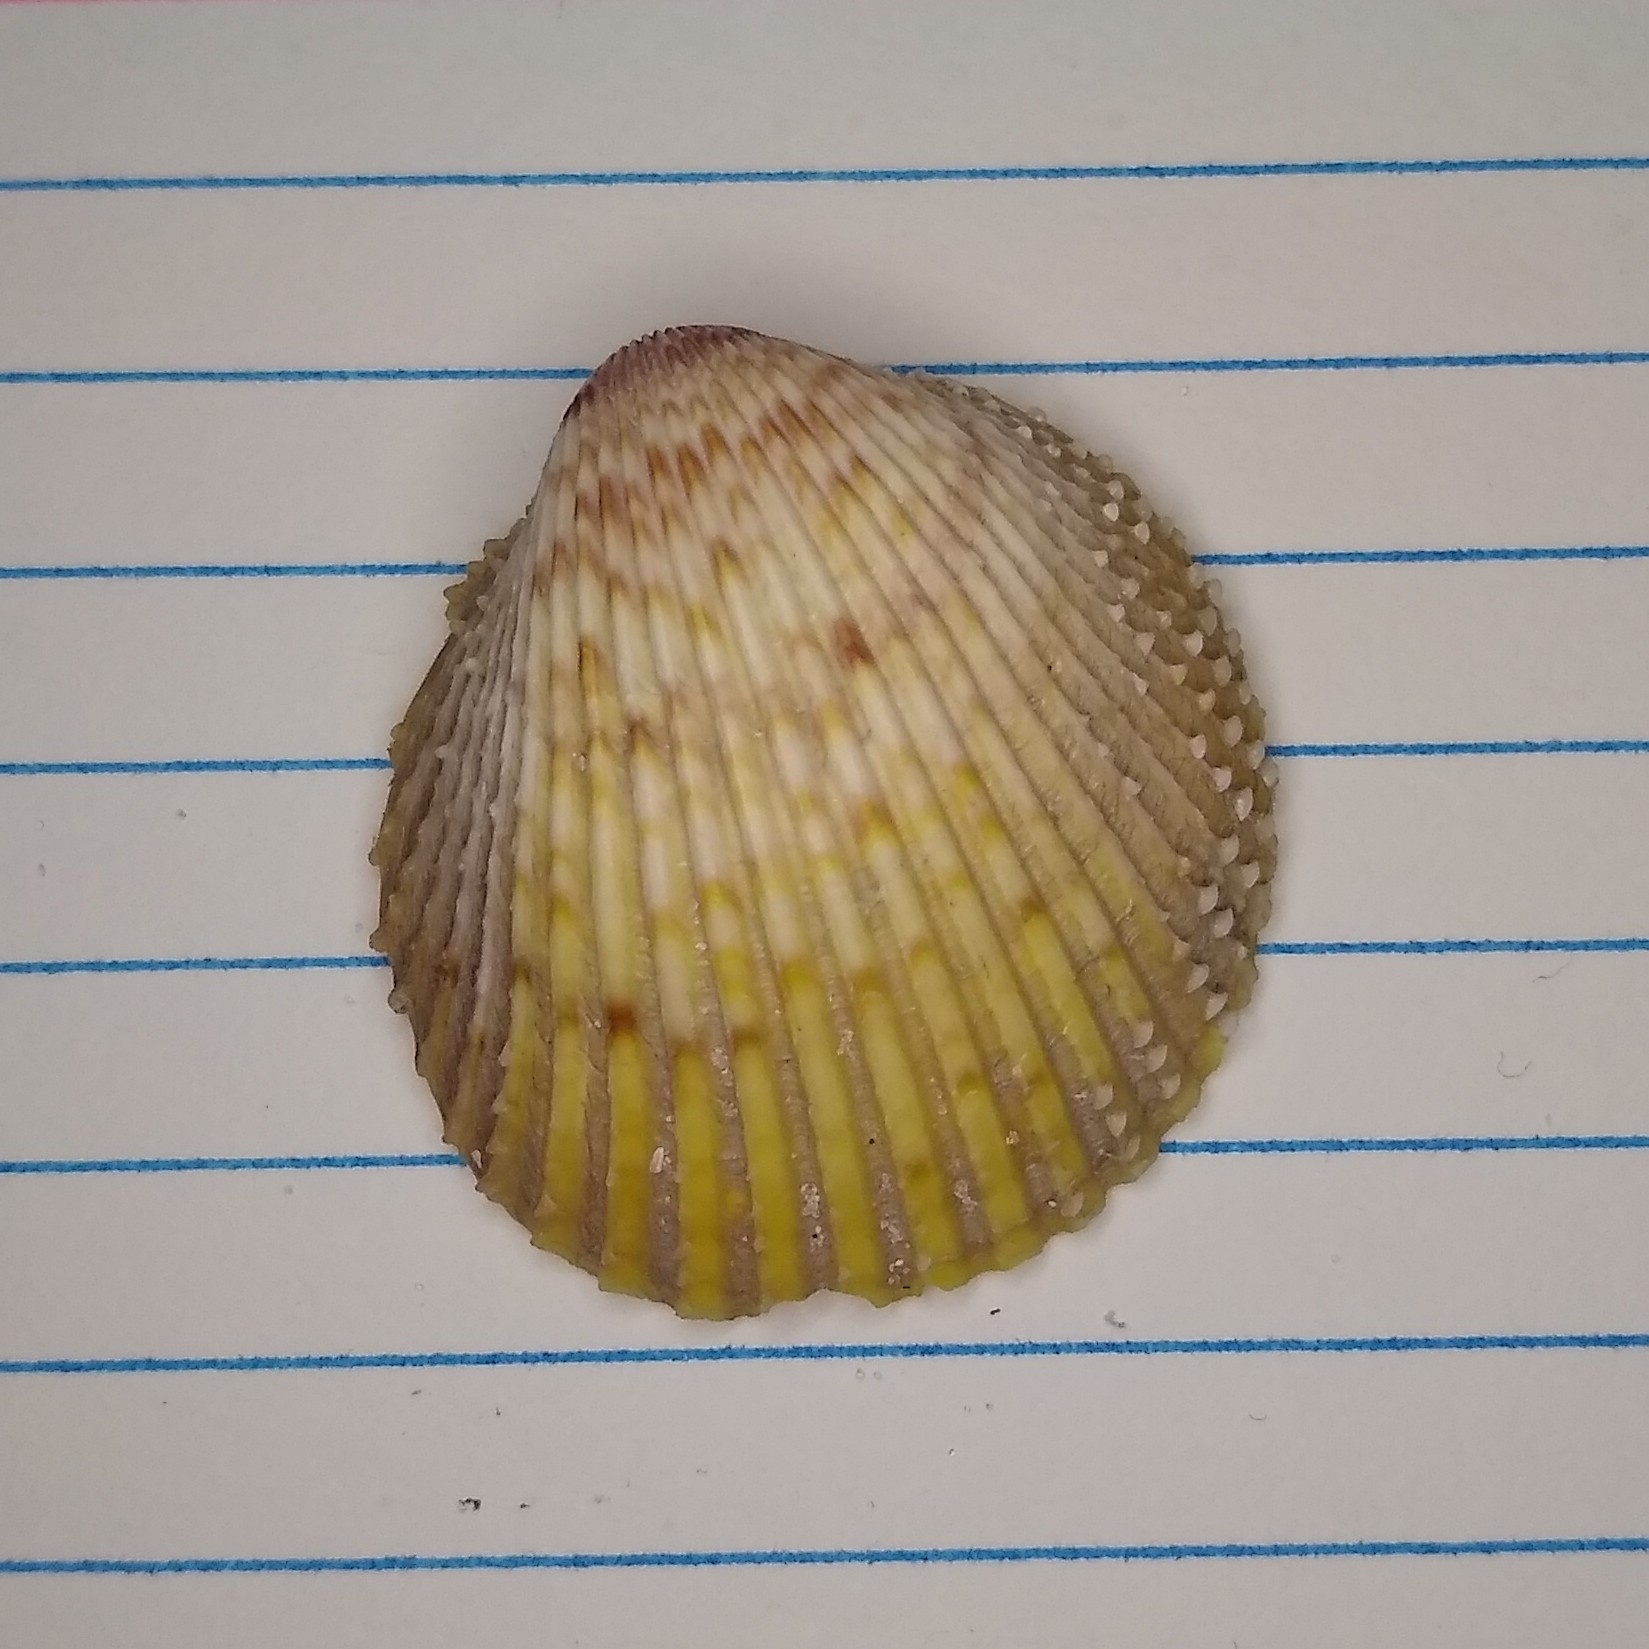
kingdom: Animalia
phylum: Mollusca
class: Bivalvia
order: Cardiida
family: Cardiidae
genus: Dallocardia
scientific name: Dallocardia muricata
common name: Yellow pricklycockle
